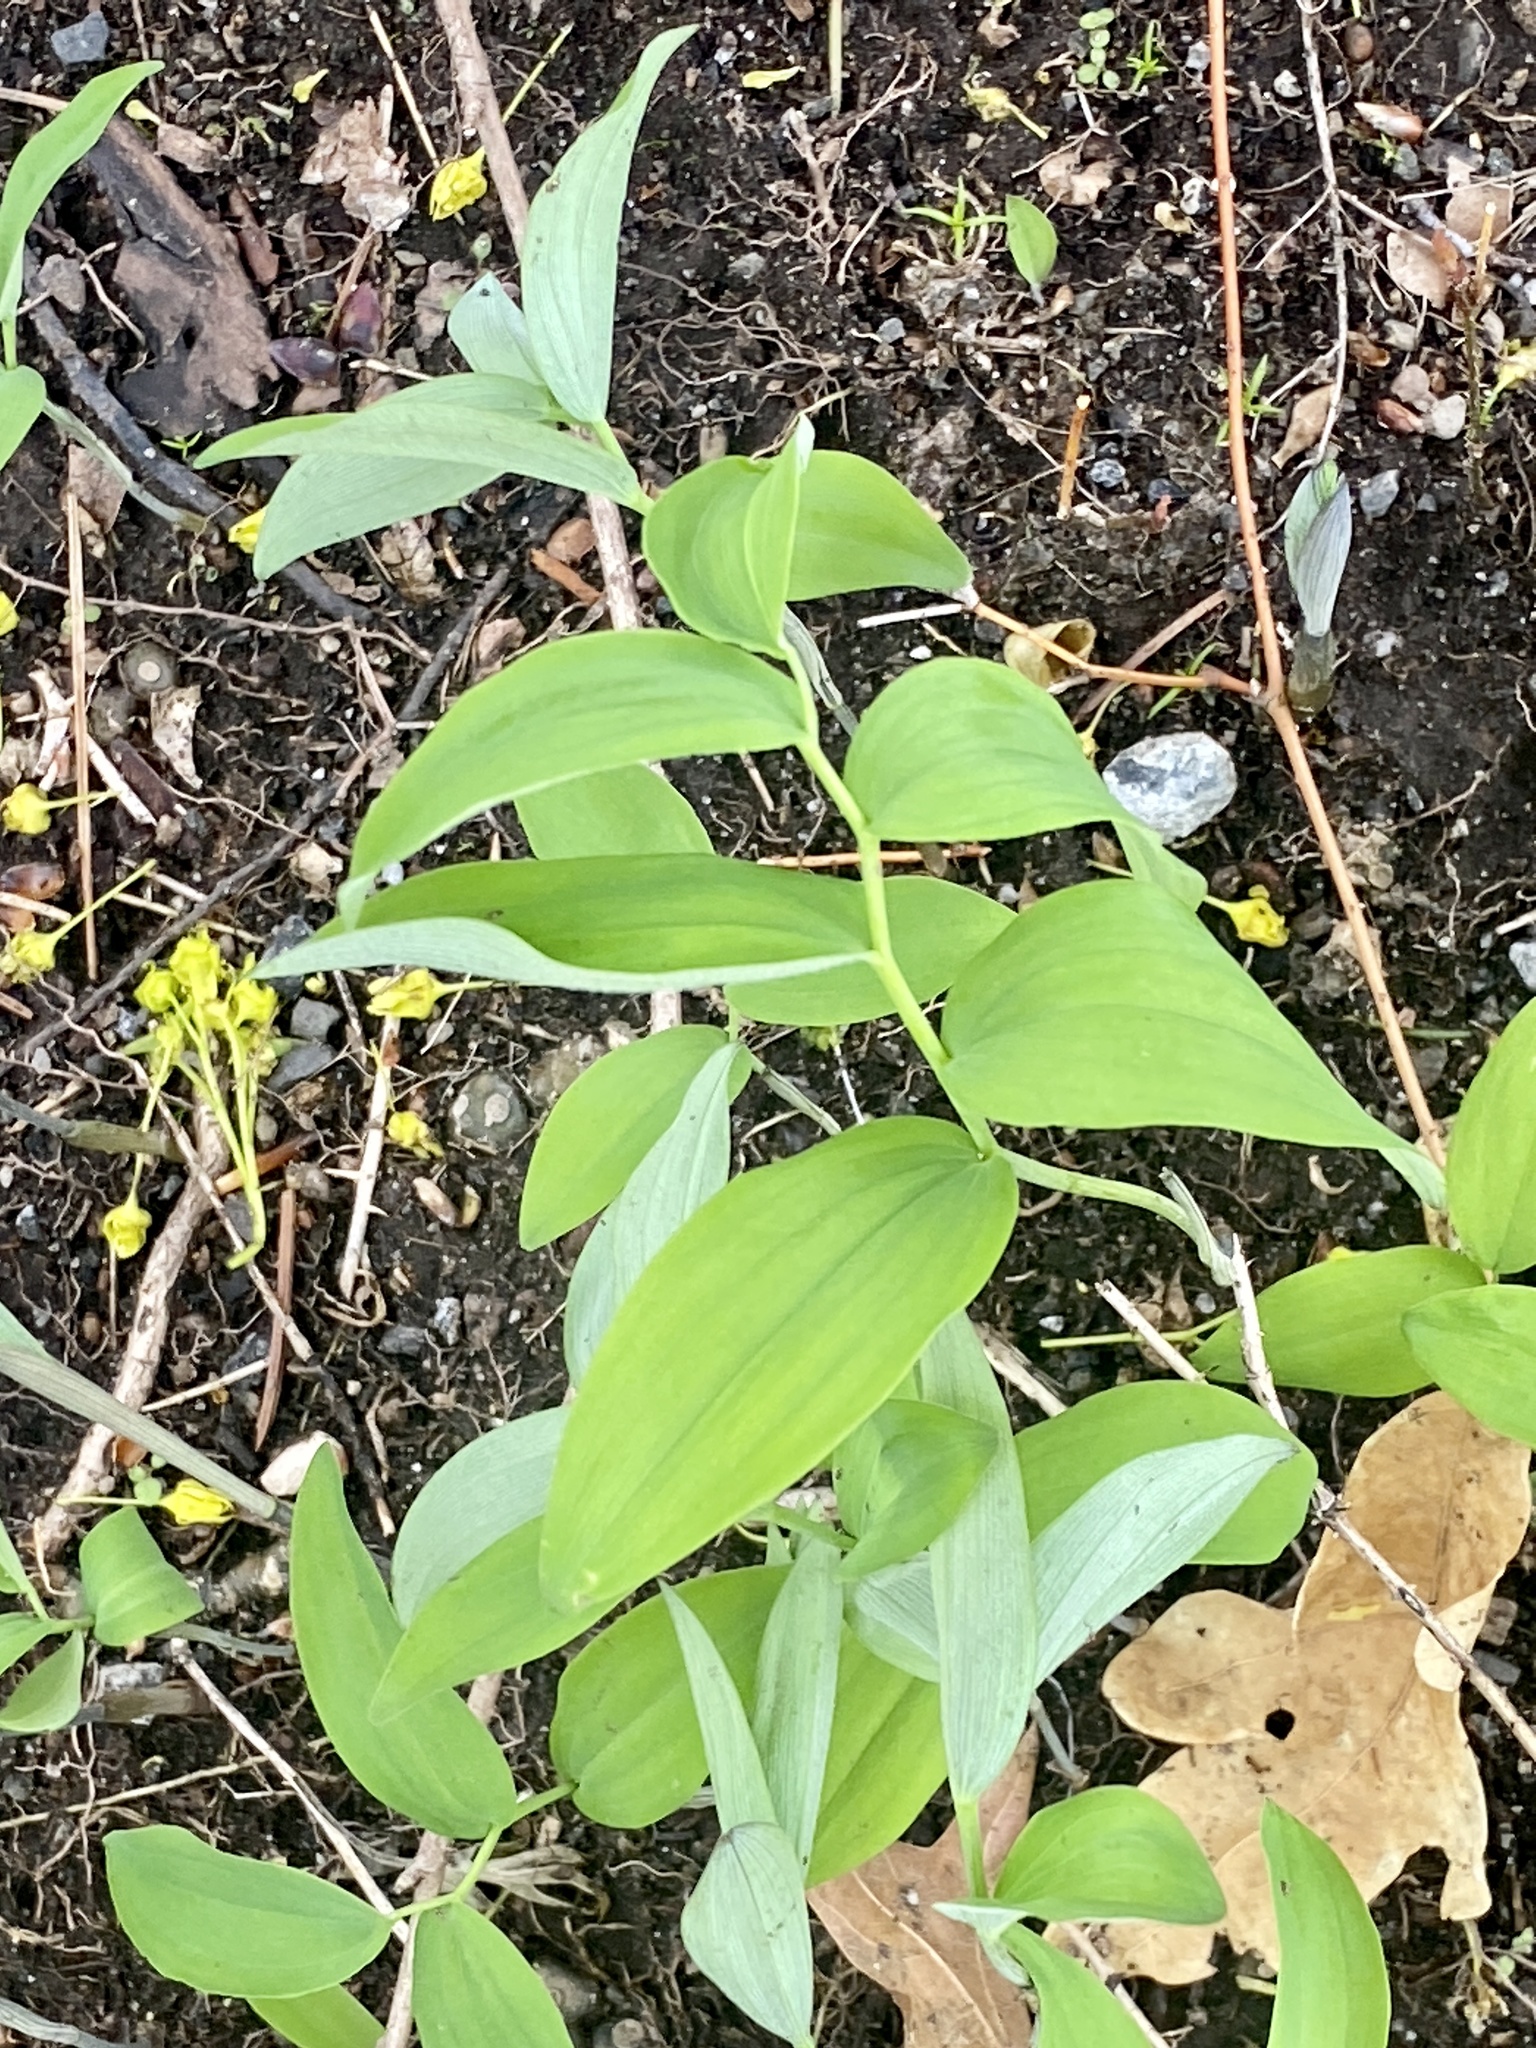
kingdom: Plantae
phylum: Tracheophyta
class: Liliopsida
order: Asparagales
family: Asparagaceae
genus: Polygonatum
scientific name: Polygonatum pubescens
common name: Downy solomon's seal
